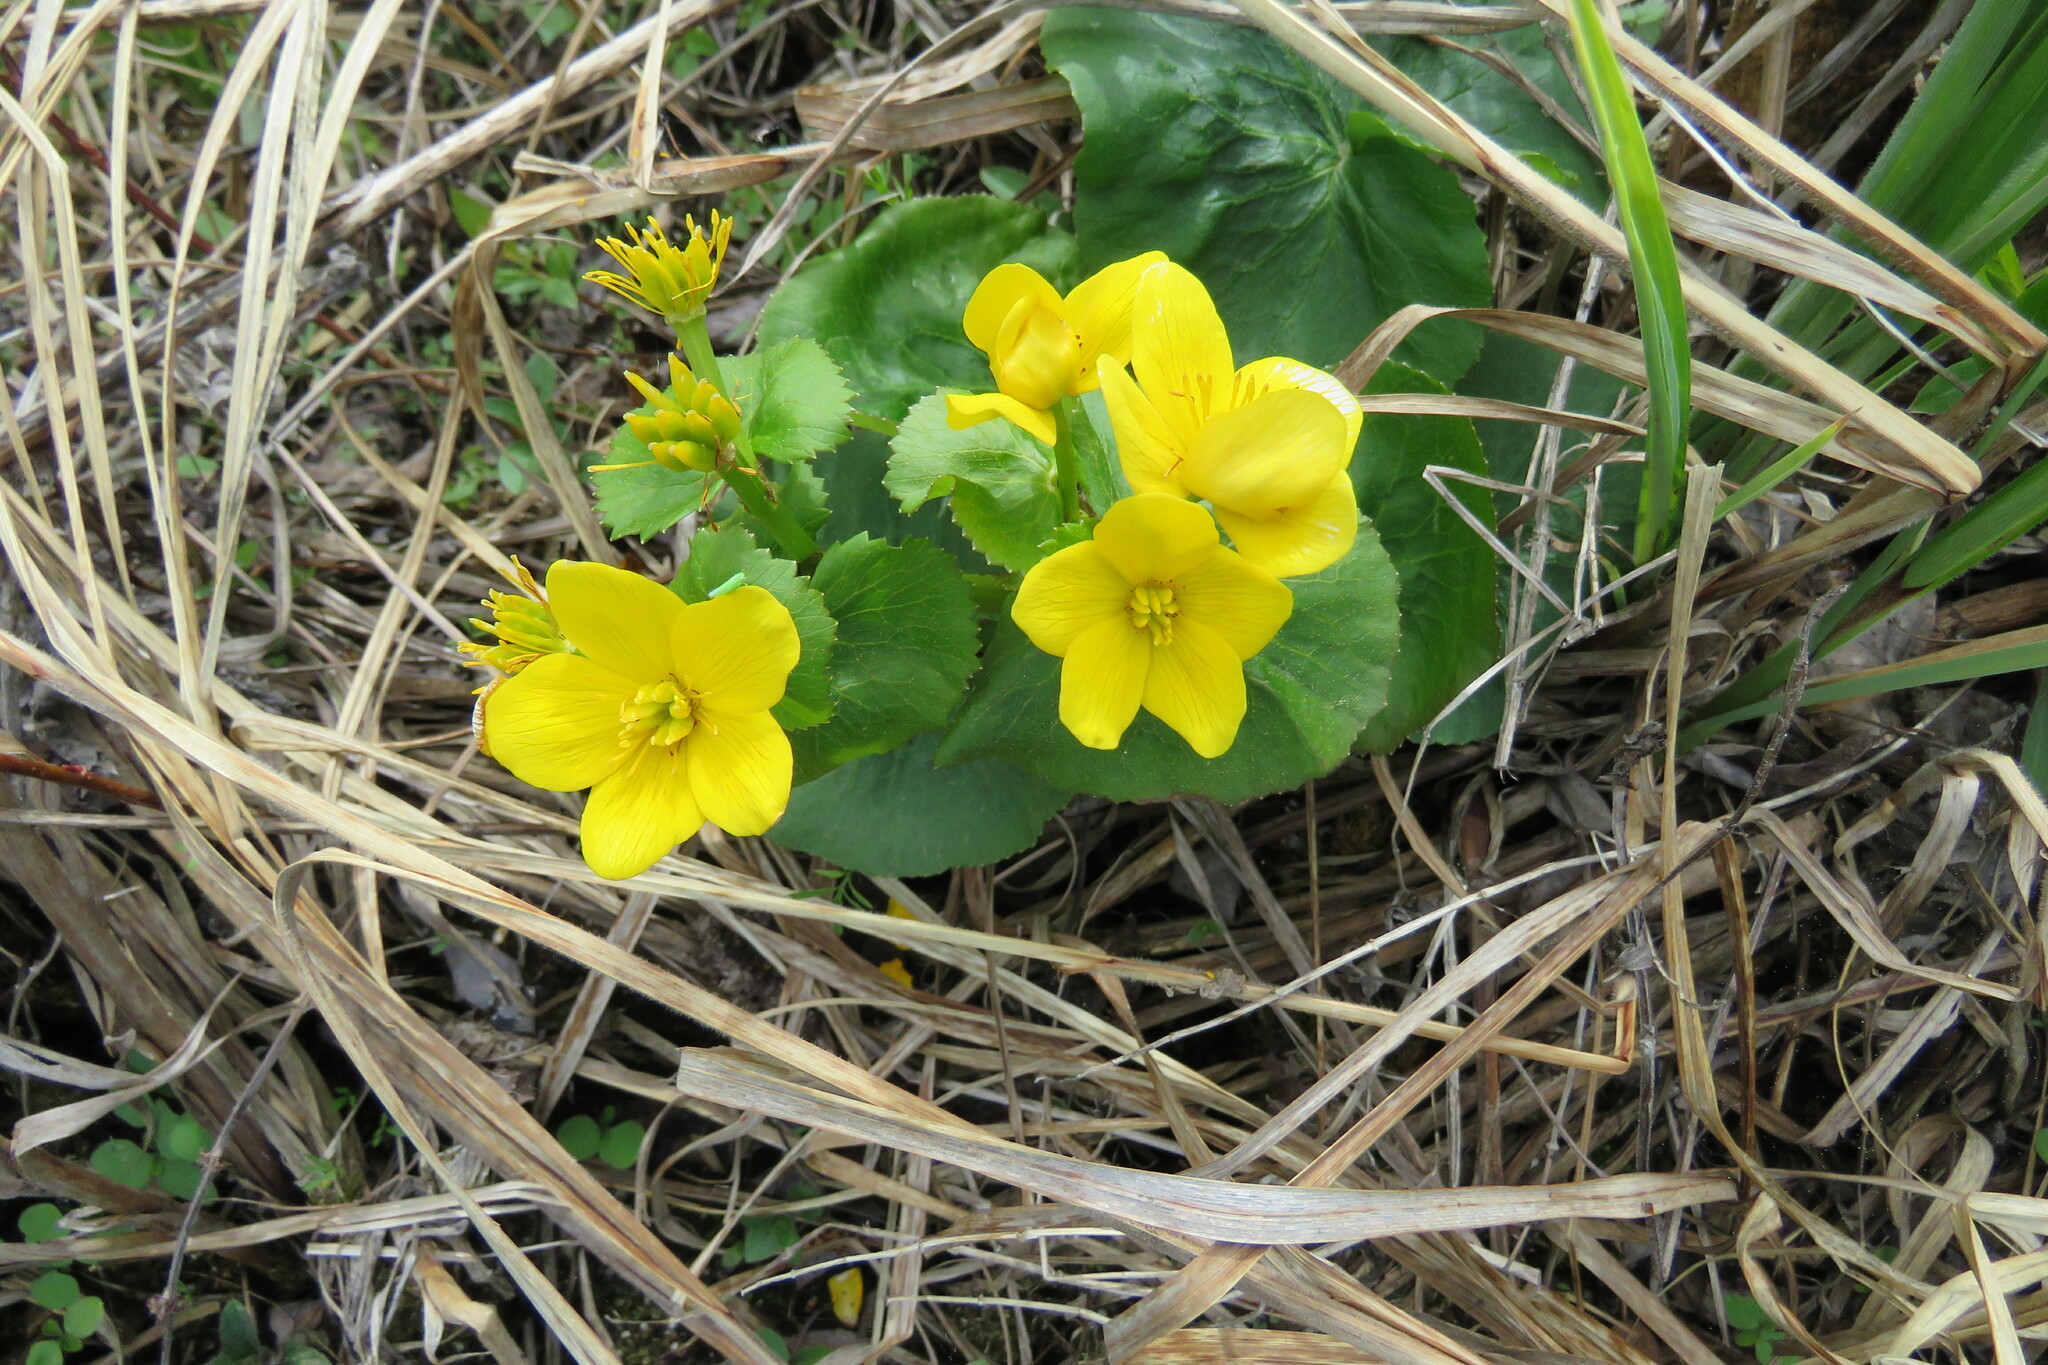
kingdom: Plantae
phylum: Tracheophyta
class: Magnoliopsida
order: Ranunculales
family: Ranunculaceae
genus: Caltha
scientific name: Caltha palustris
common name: Marsh marigold
